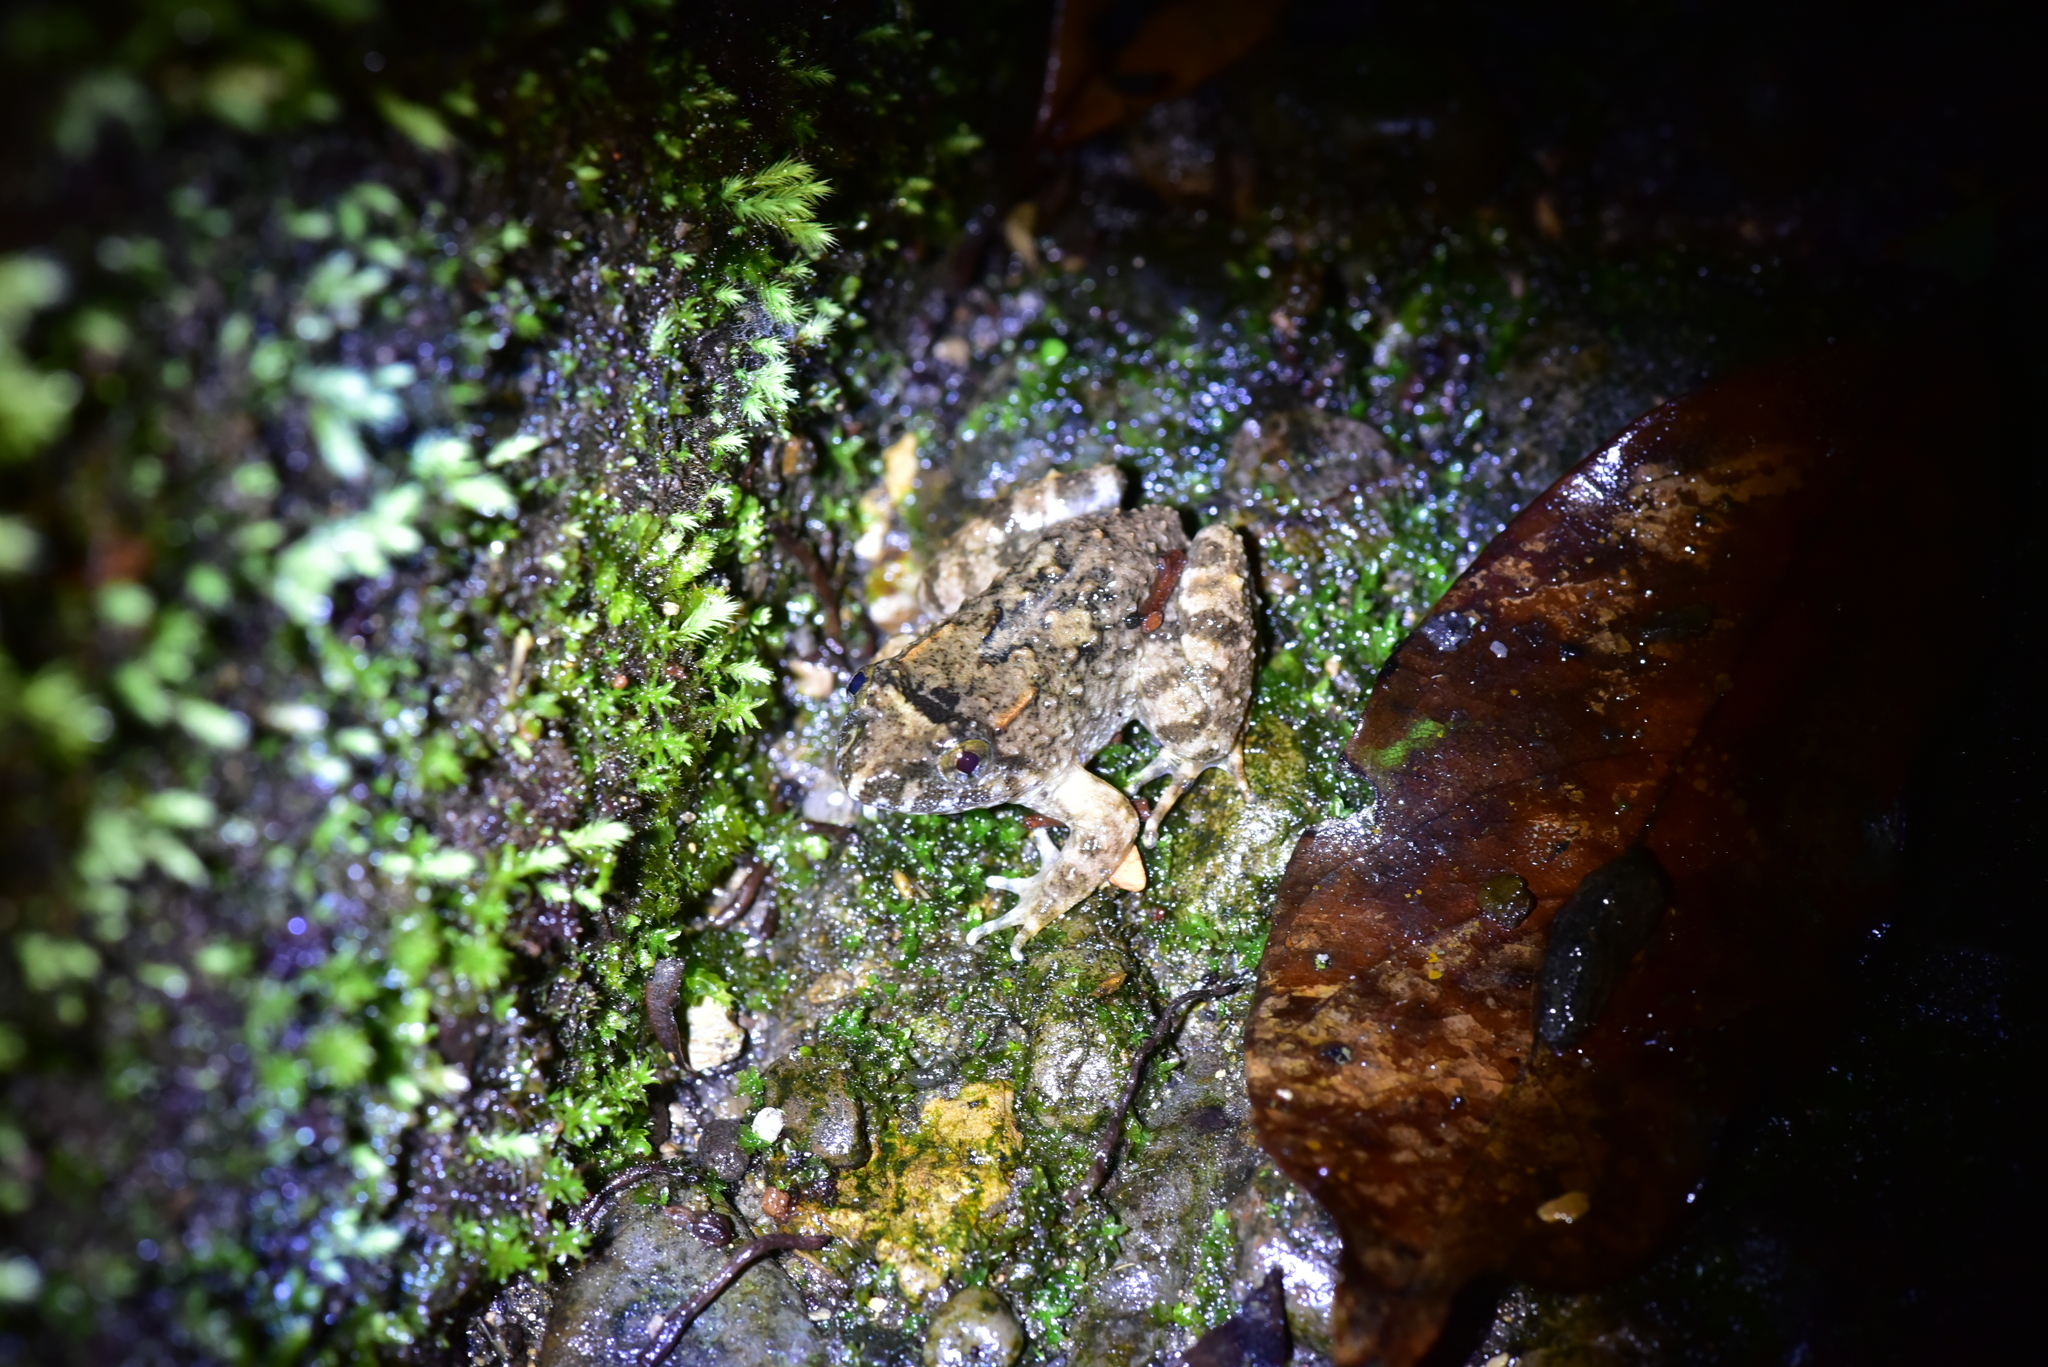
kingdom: Animalia
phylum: Chordata
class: Amphibia
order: Anura
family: Dicroglossidae
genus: Limnonectes
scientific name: Limnonectes fujianensis
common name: Fujian large-headed frog
